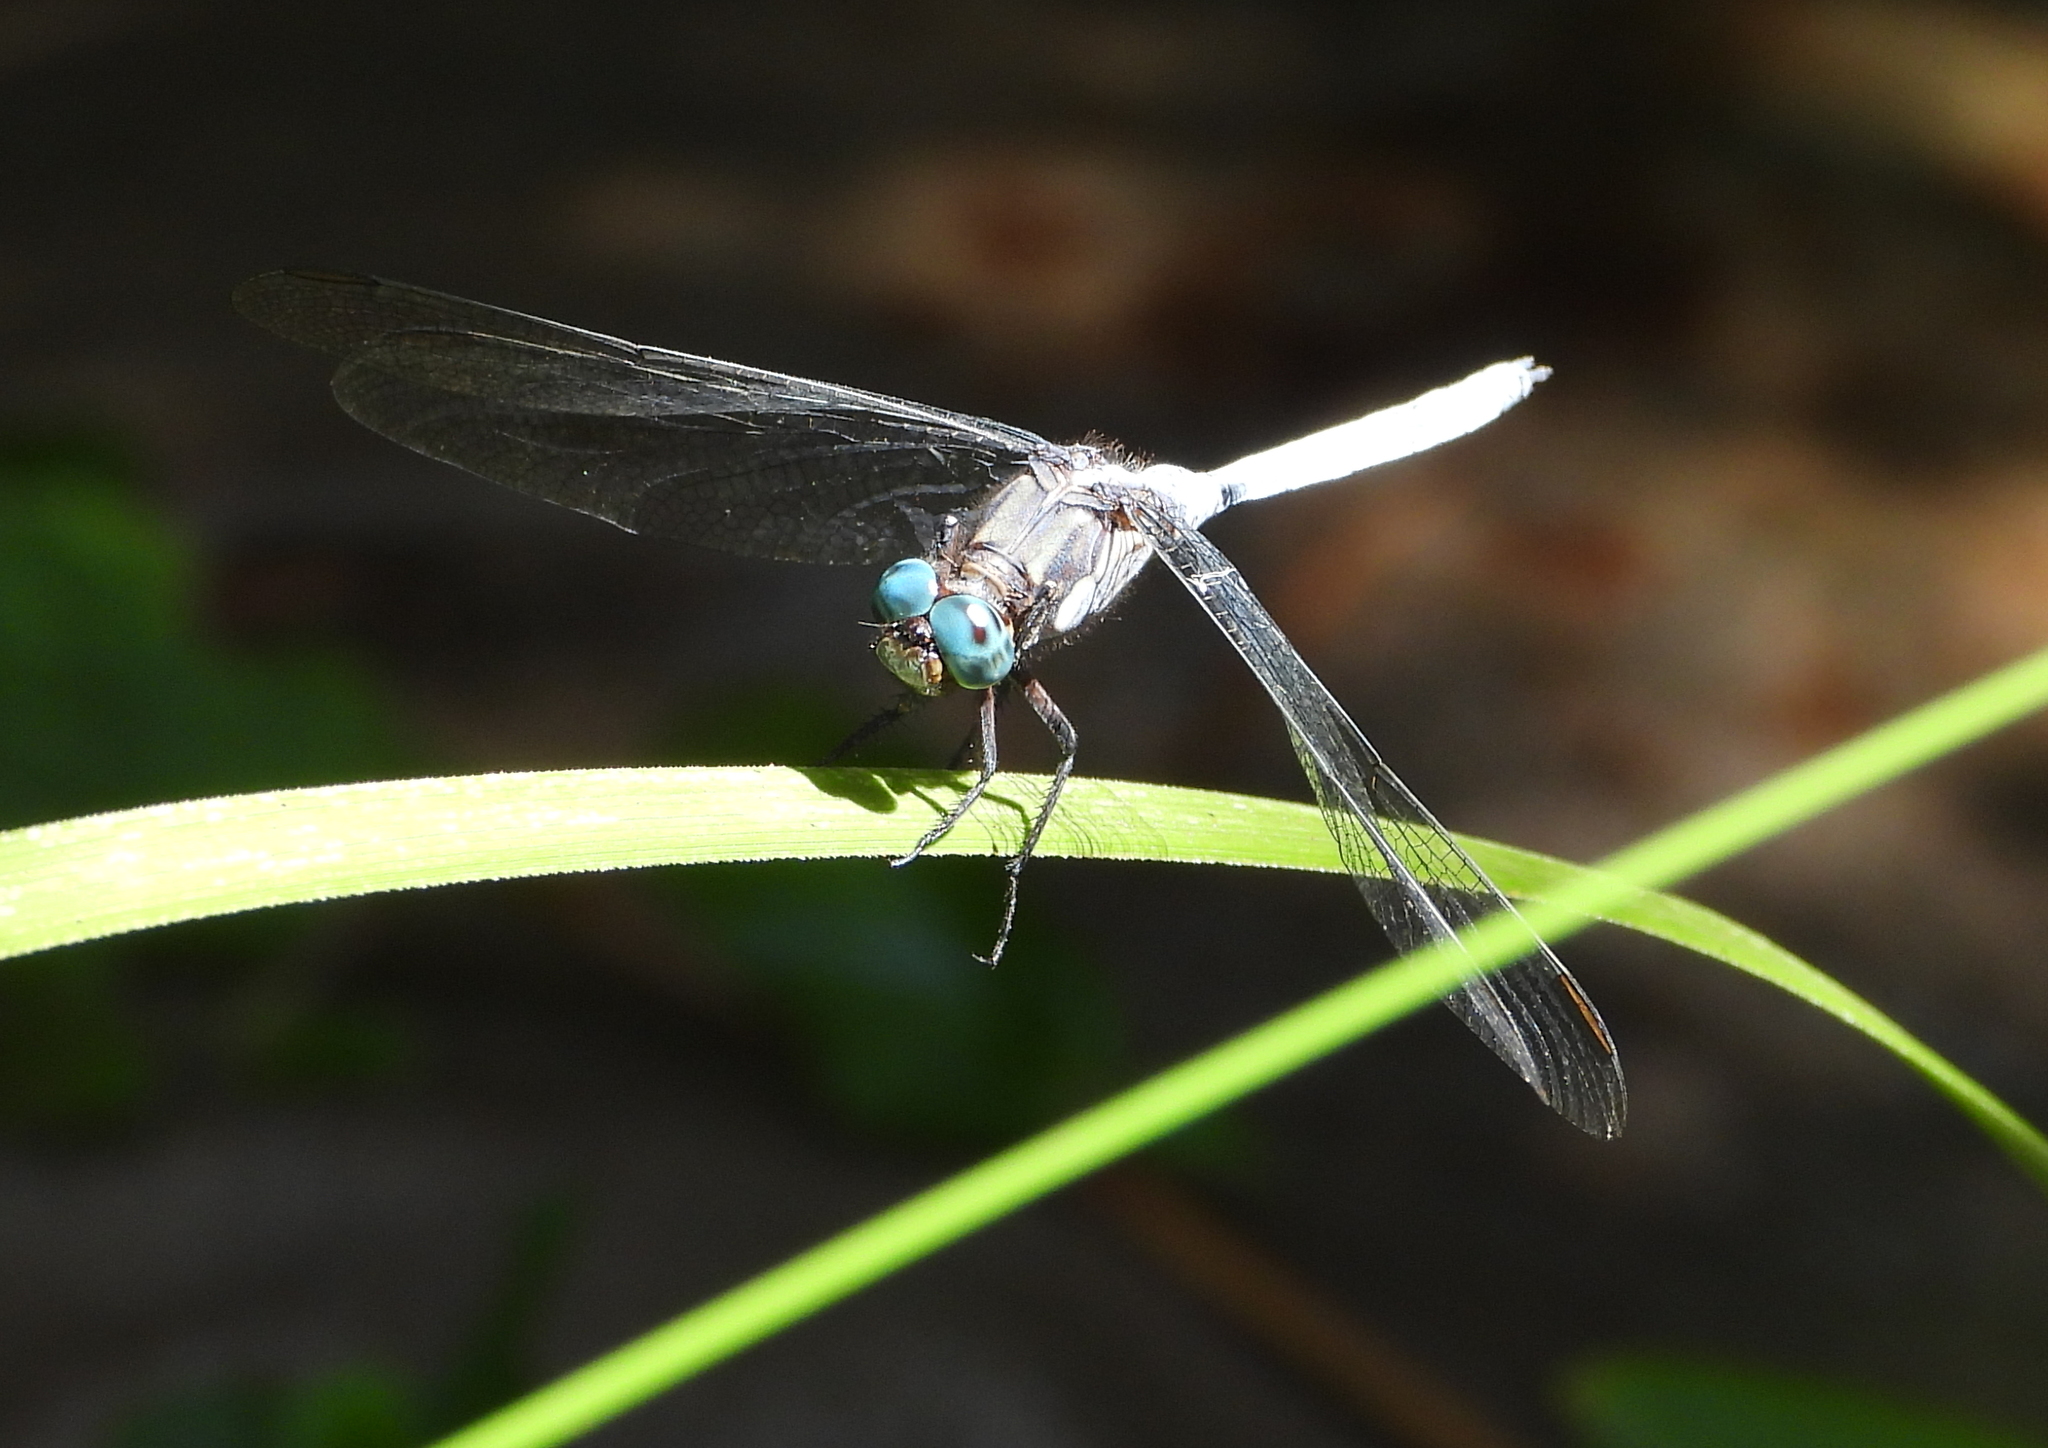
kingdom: Animalia
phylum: Arthropoda
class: Insecta
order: Odonata
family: Libellulidae
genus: Orthetrum
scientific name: Orthetrum julia
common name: Julia skimmer
